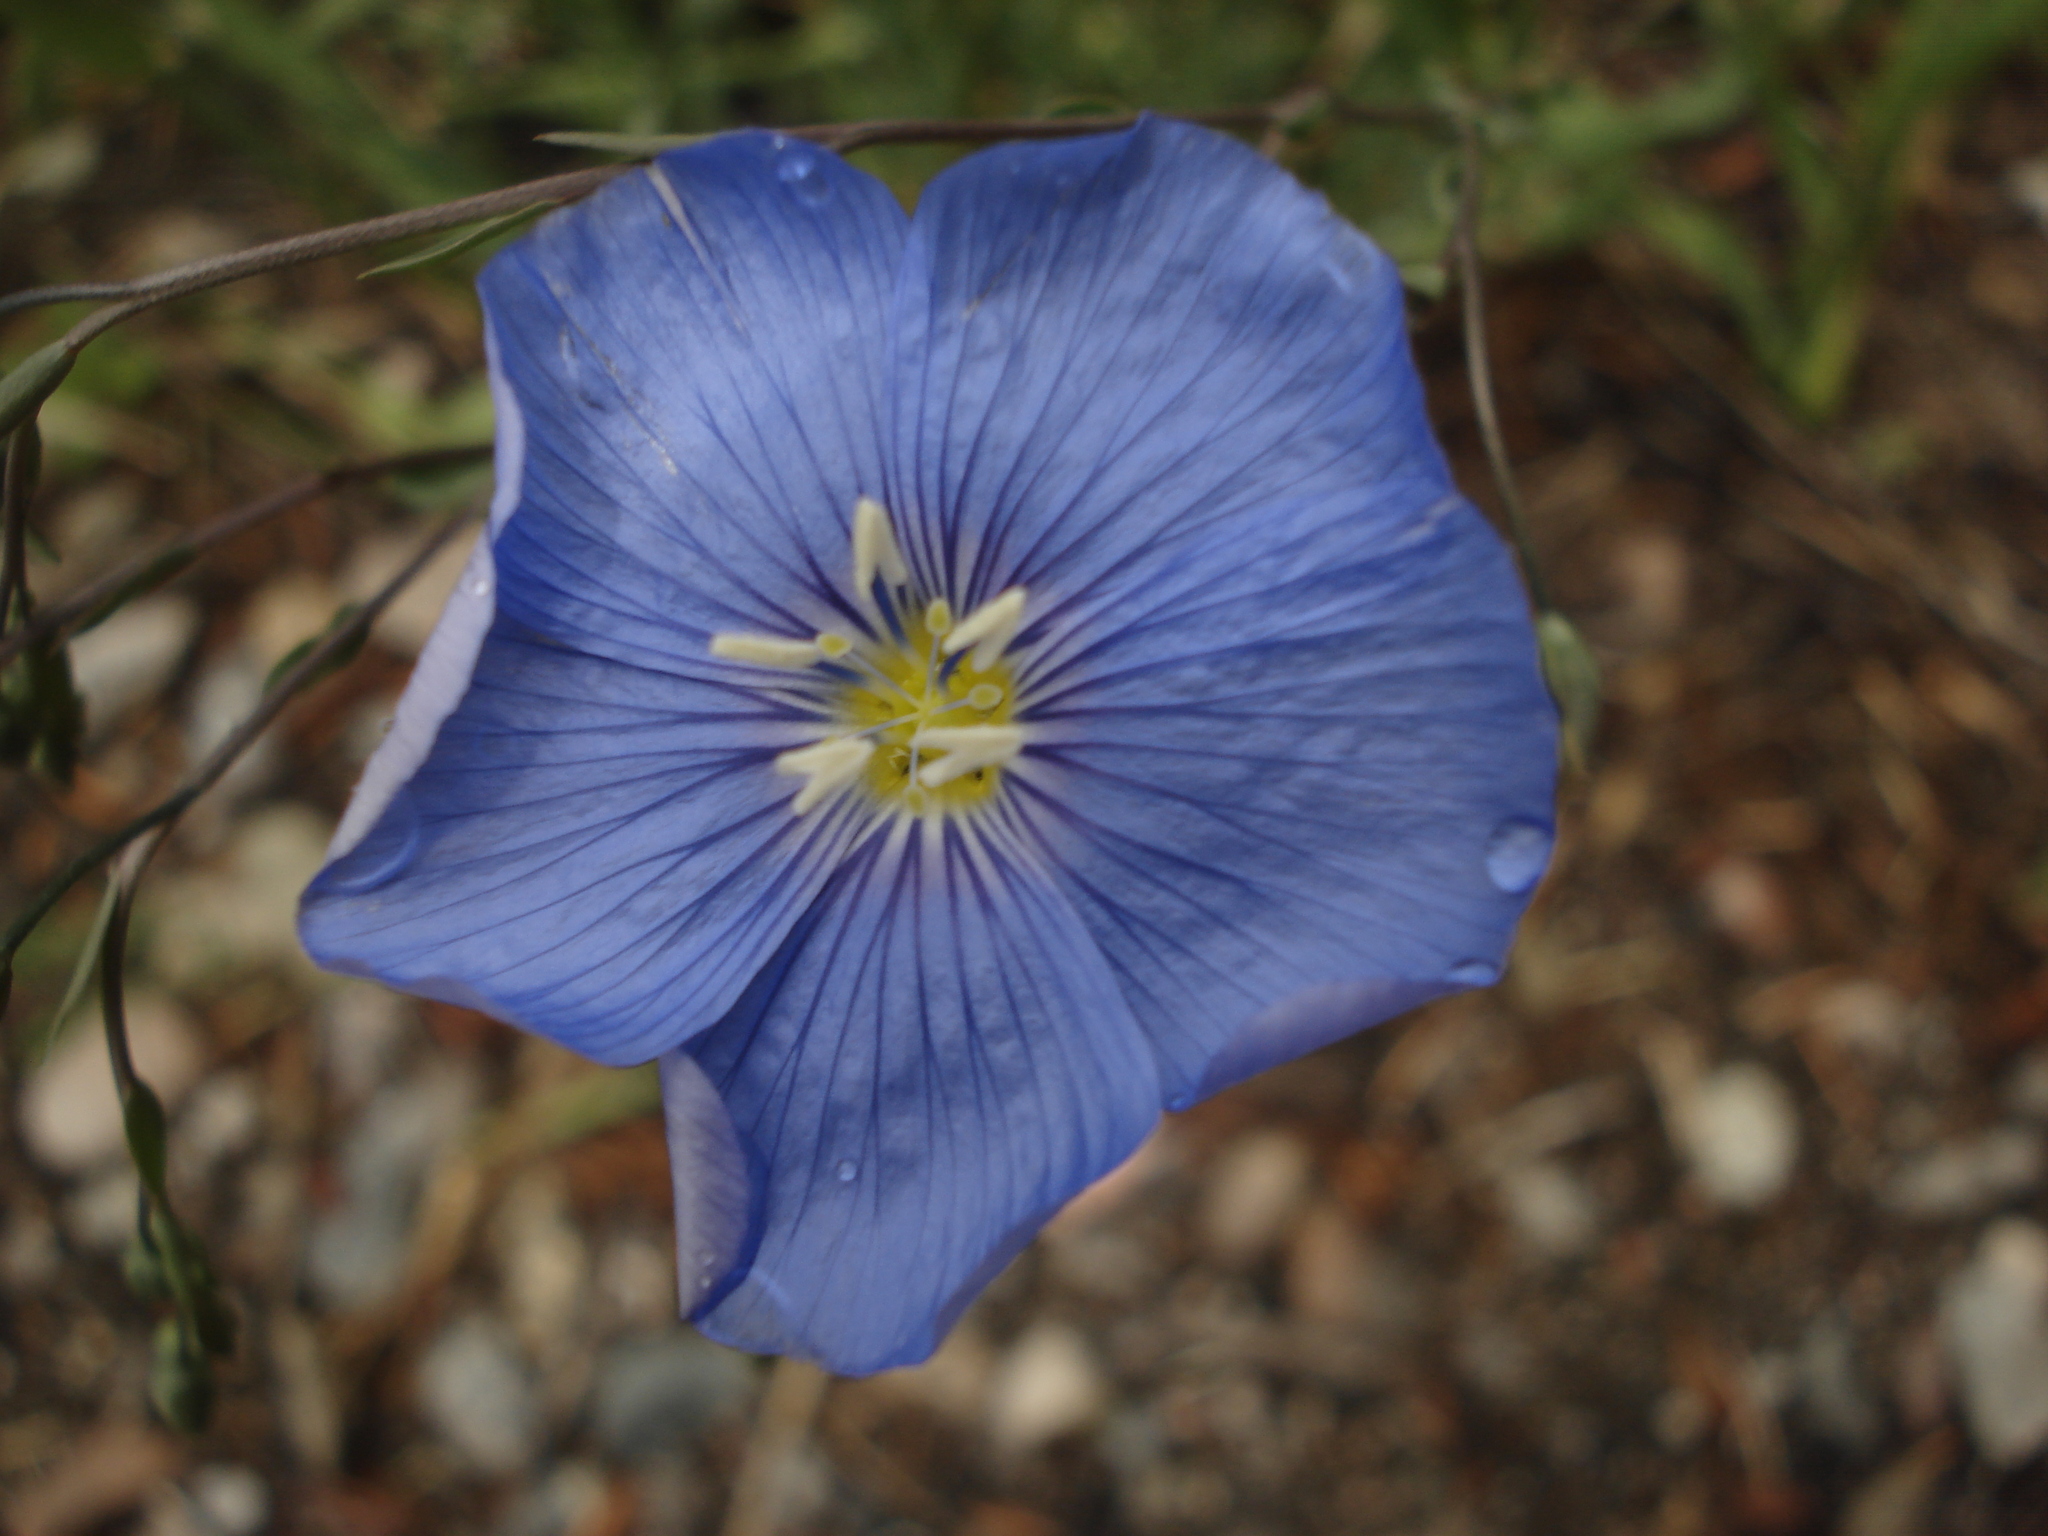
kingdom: Plantae
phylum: Tracheophyta
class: Magnoliopsida
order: Malpighiales
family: Linaceae
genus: Linum
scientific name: Linum lewisii
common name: Prairie flax
